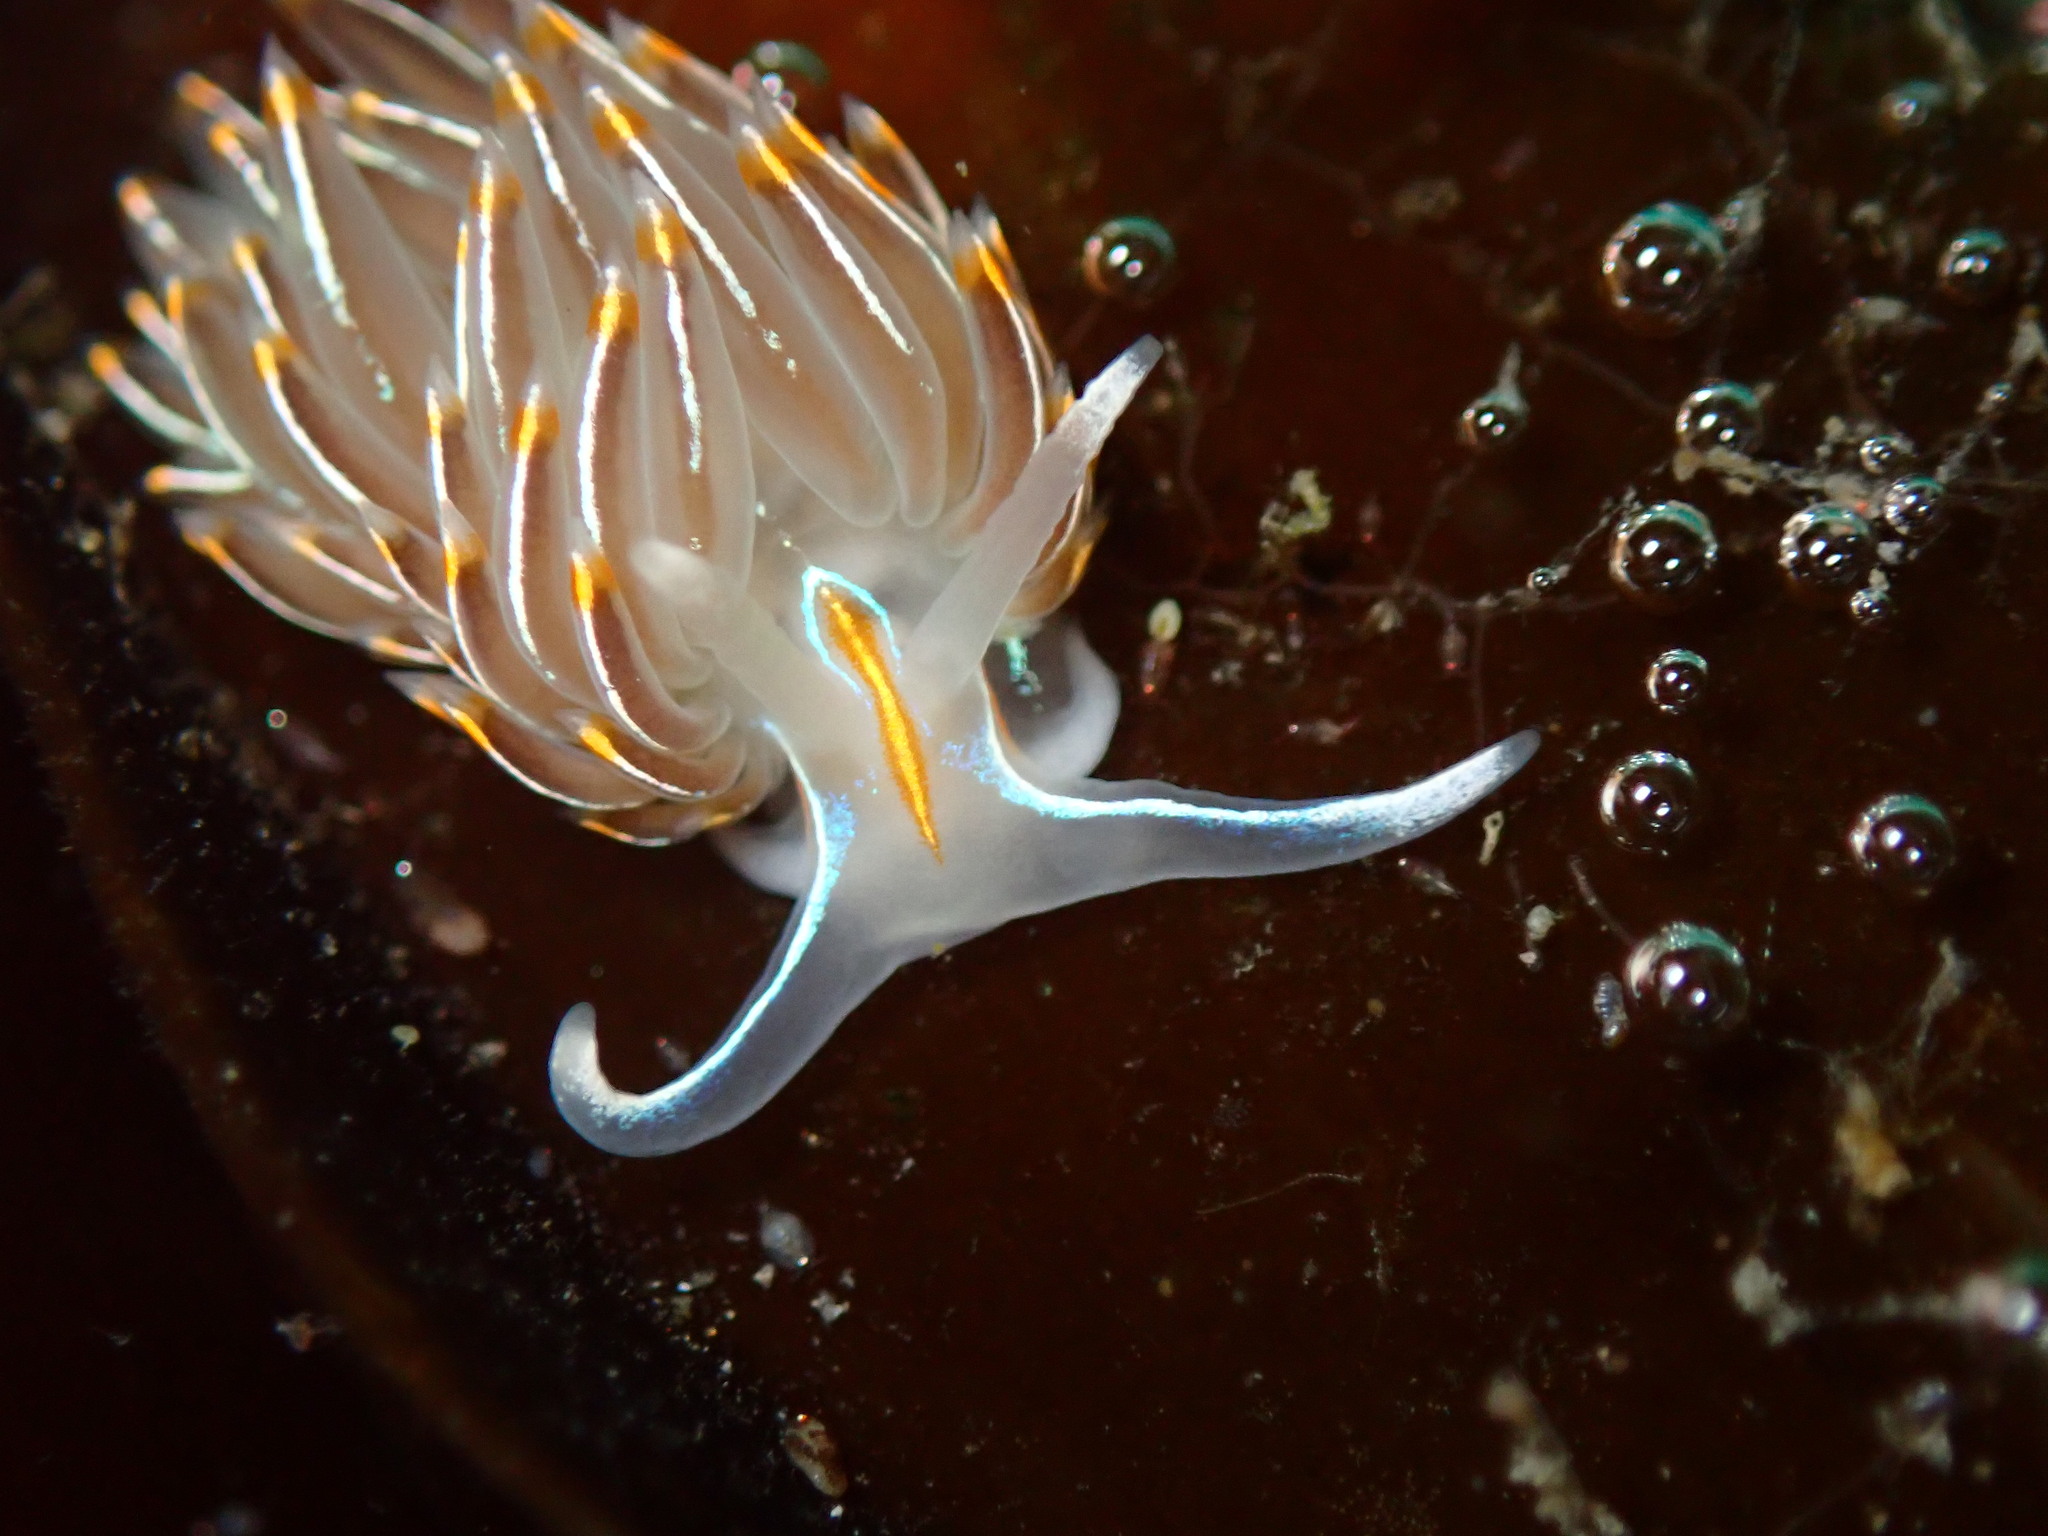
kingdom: Animalia
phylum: Mollusca
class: Gastropoda
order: Nudibranchia
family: Myrrhinidae
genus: Hermissenda
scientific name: Hermissenda crassicornis
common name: Hermissenda
